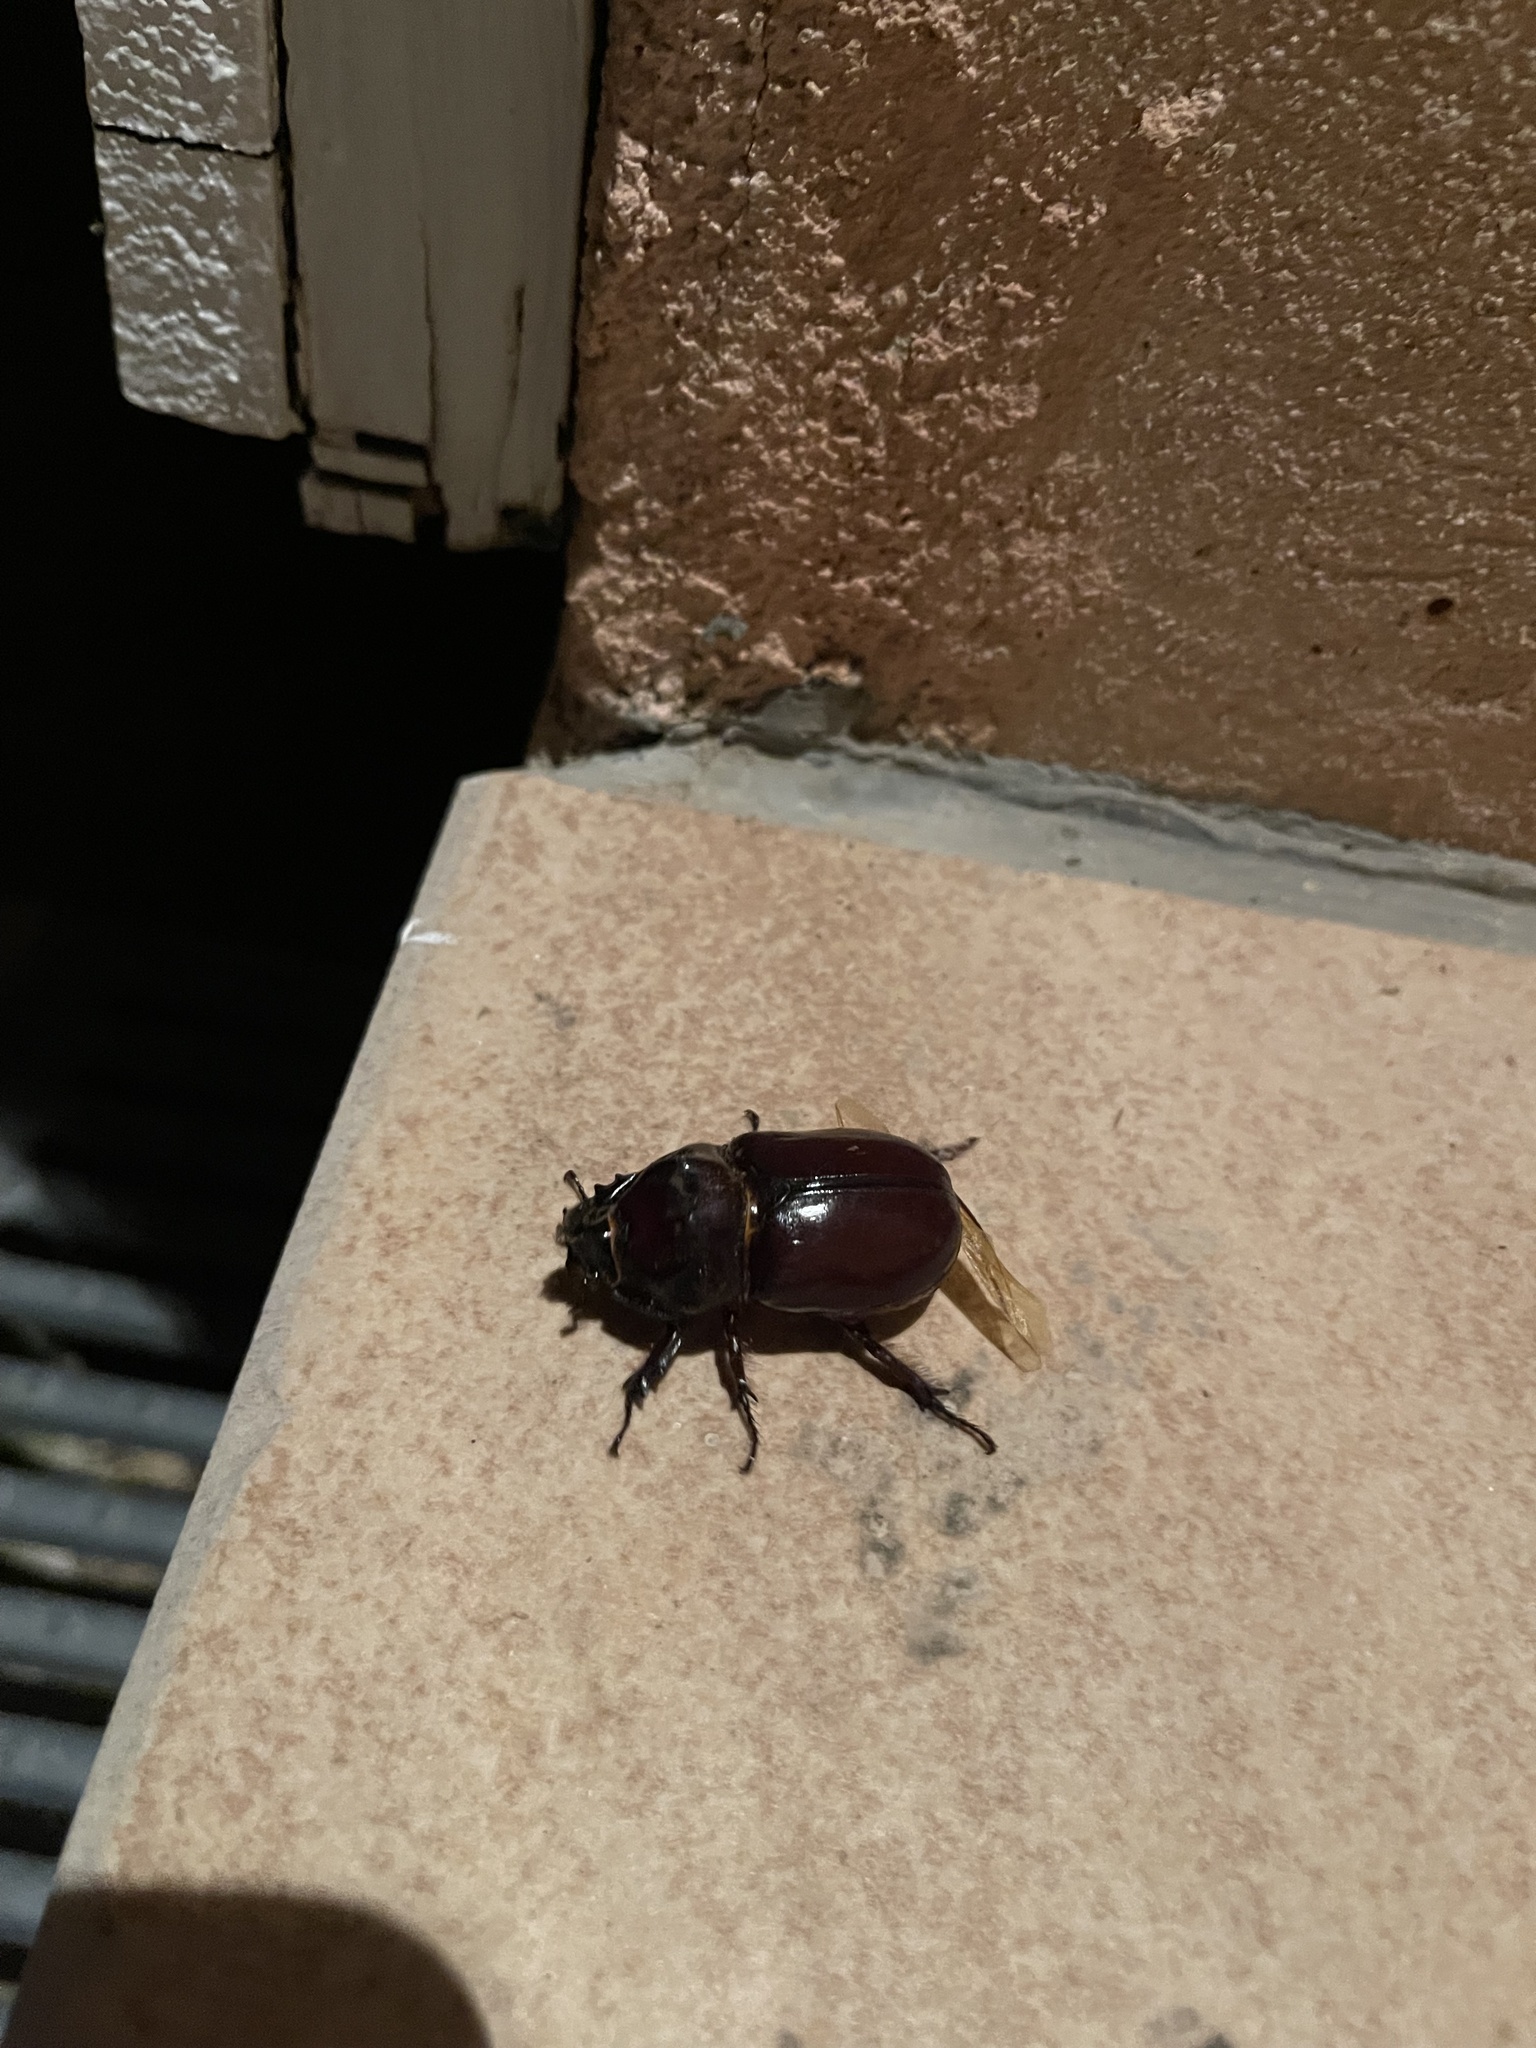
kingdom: Animalia
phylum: Arthropoda
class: Insecta
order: Coleoptera
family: Scarabaeidae
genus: Oryctes
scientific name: Oryctes nasicornis
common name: European rhinoceros beetle
